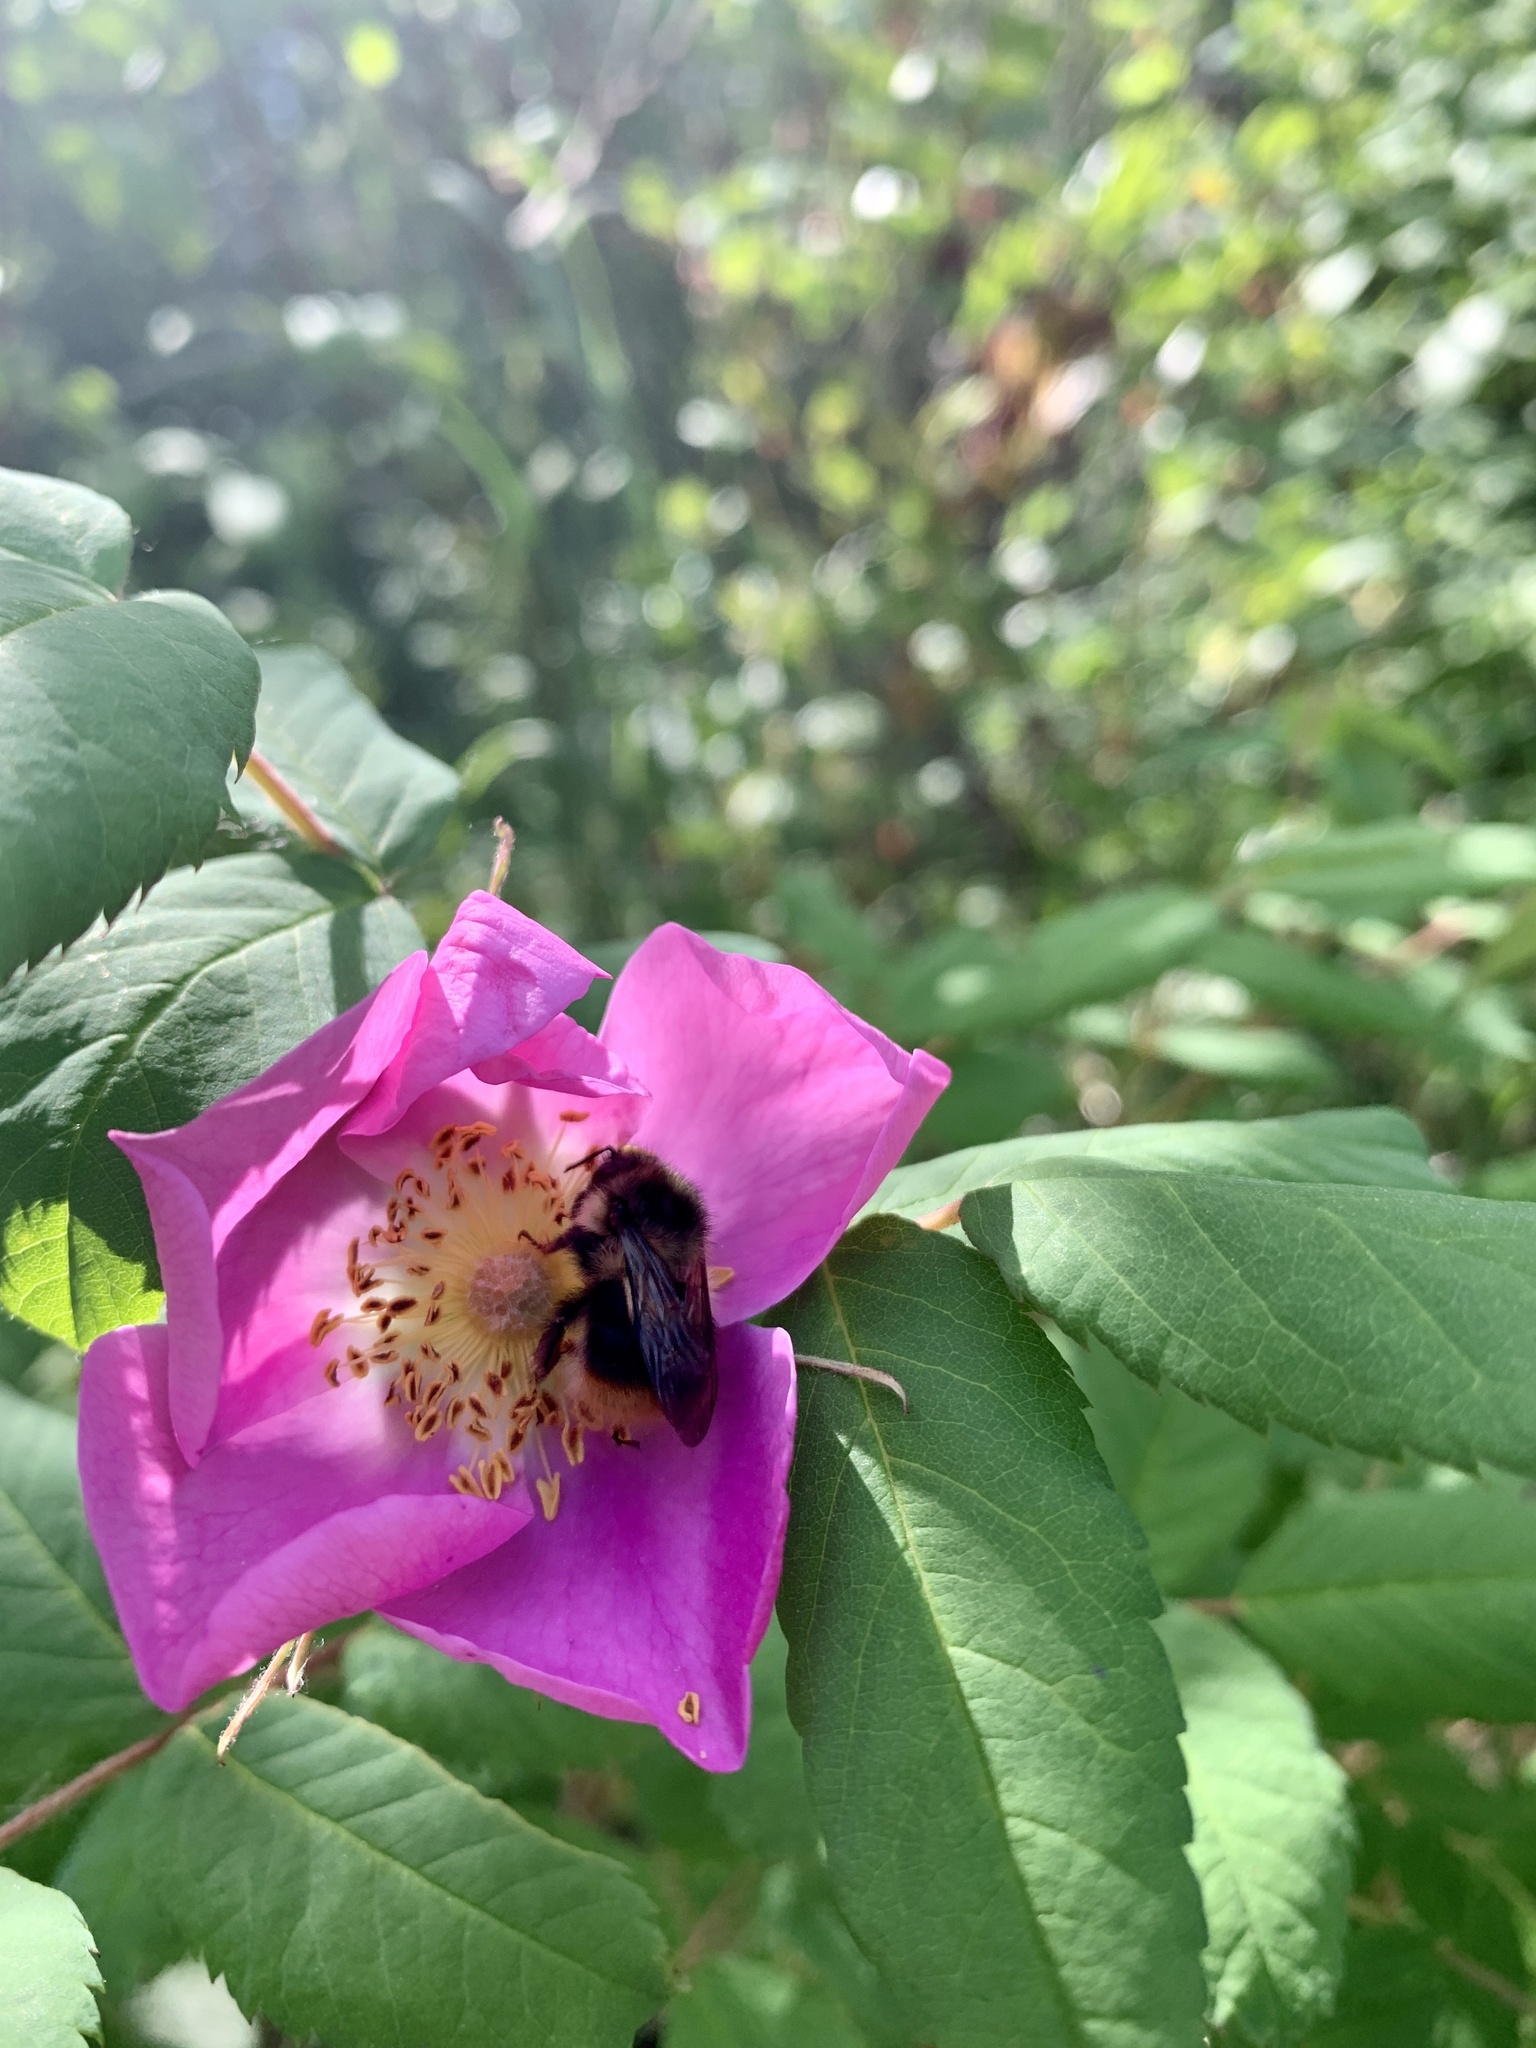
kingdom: Animalia
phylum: Arthropoda
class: Insecta
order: Hymenoptera
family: Apidae
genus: Bombus
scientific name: Bombus mixtus
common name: Fuzzy-horned bumble bee
